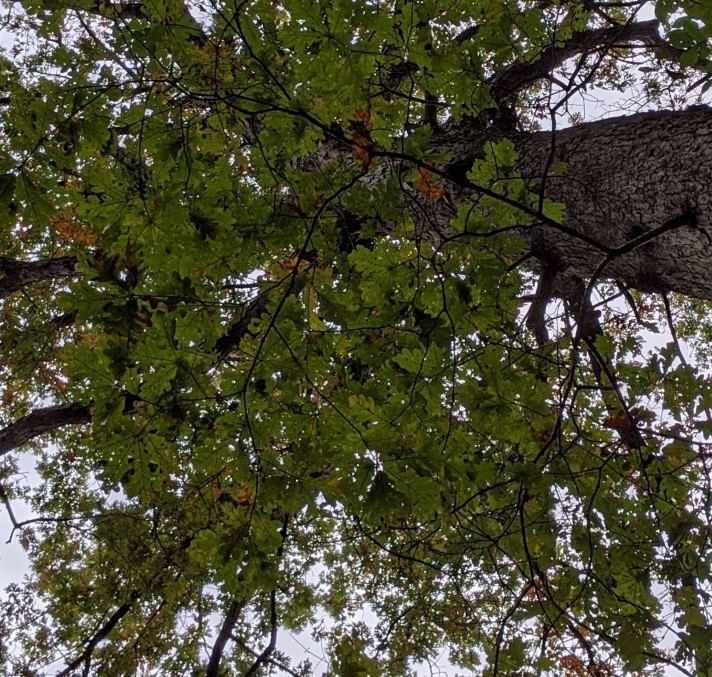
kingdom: Plantae
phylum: Tracheophyta
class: Magnoliopsida
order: Fagales
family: Fagaceae
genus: Quercus
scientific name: Quercus alba
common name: White oak
